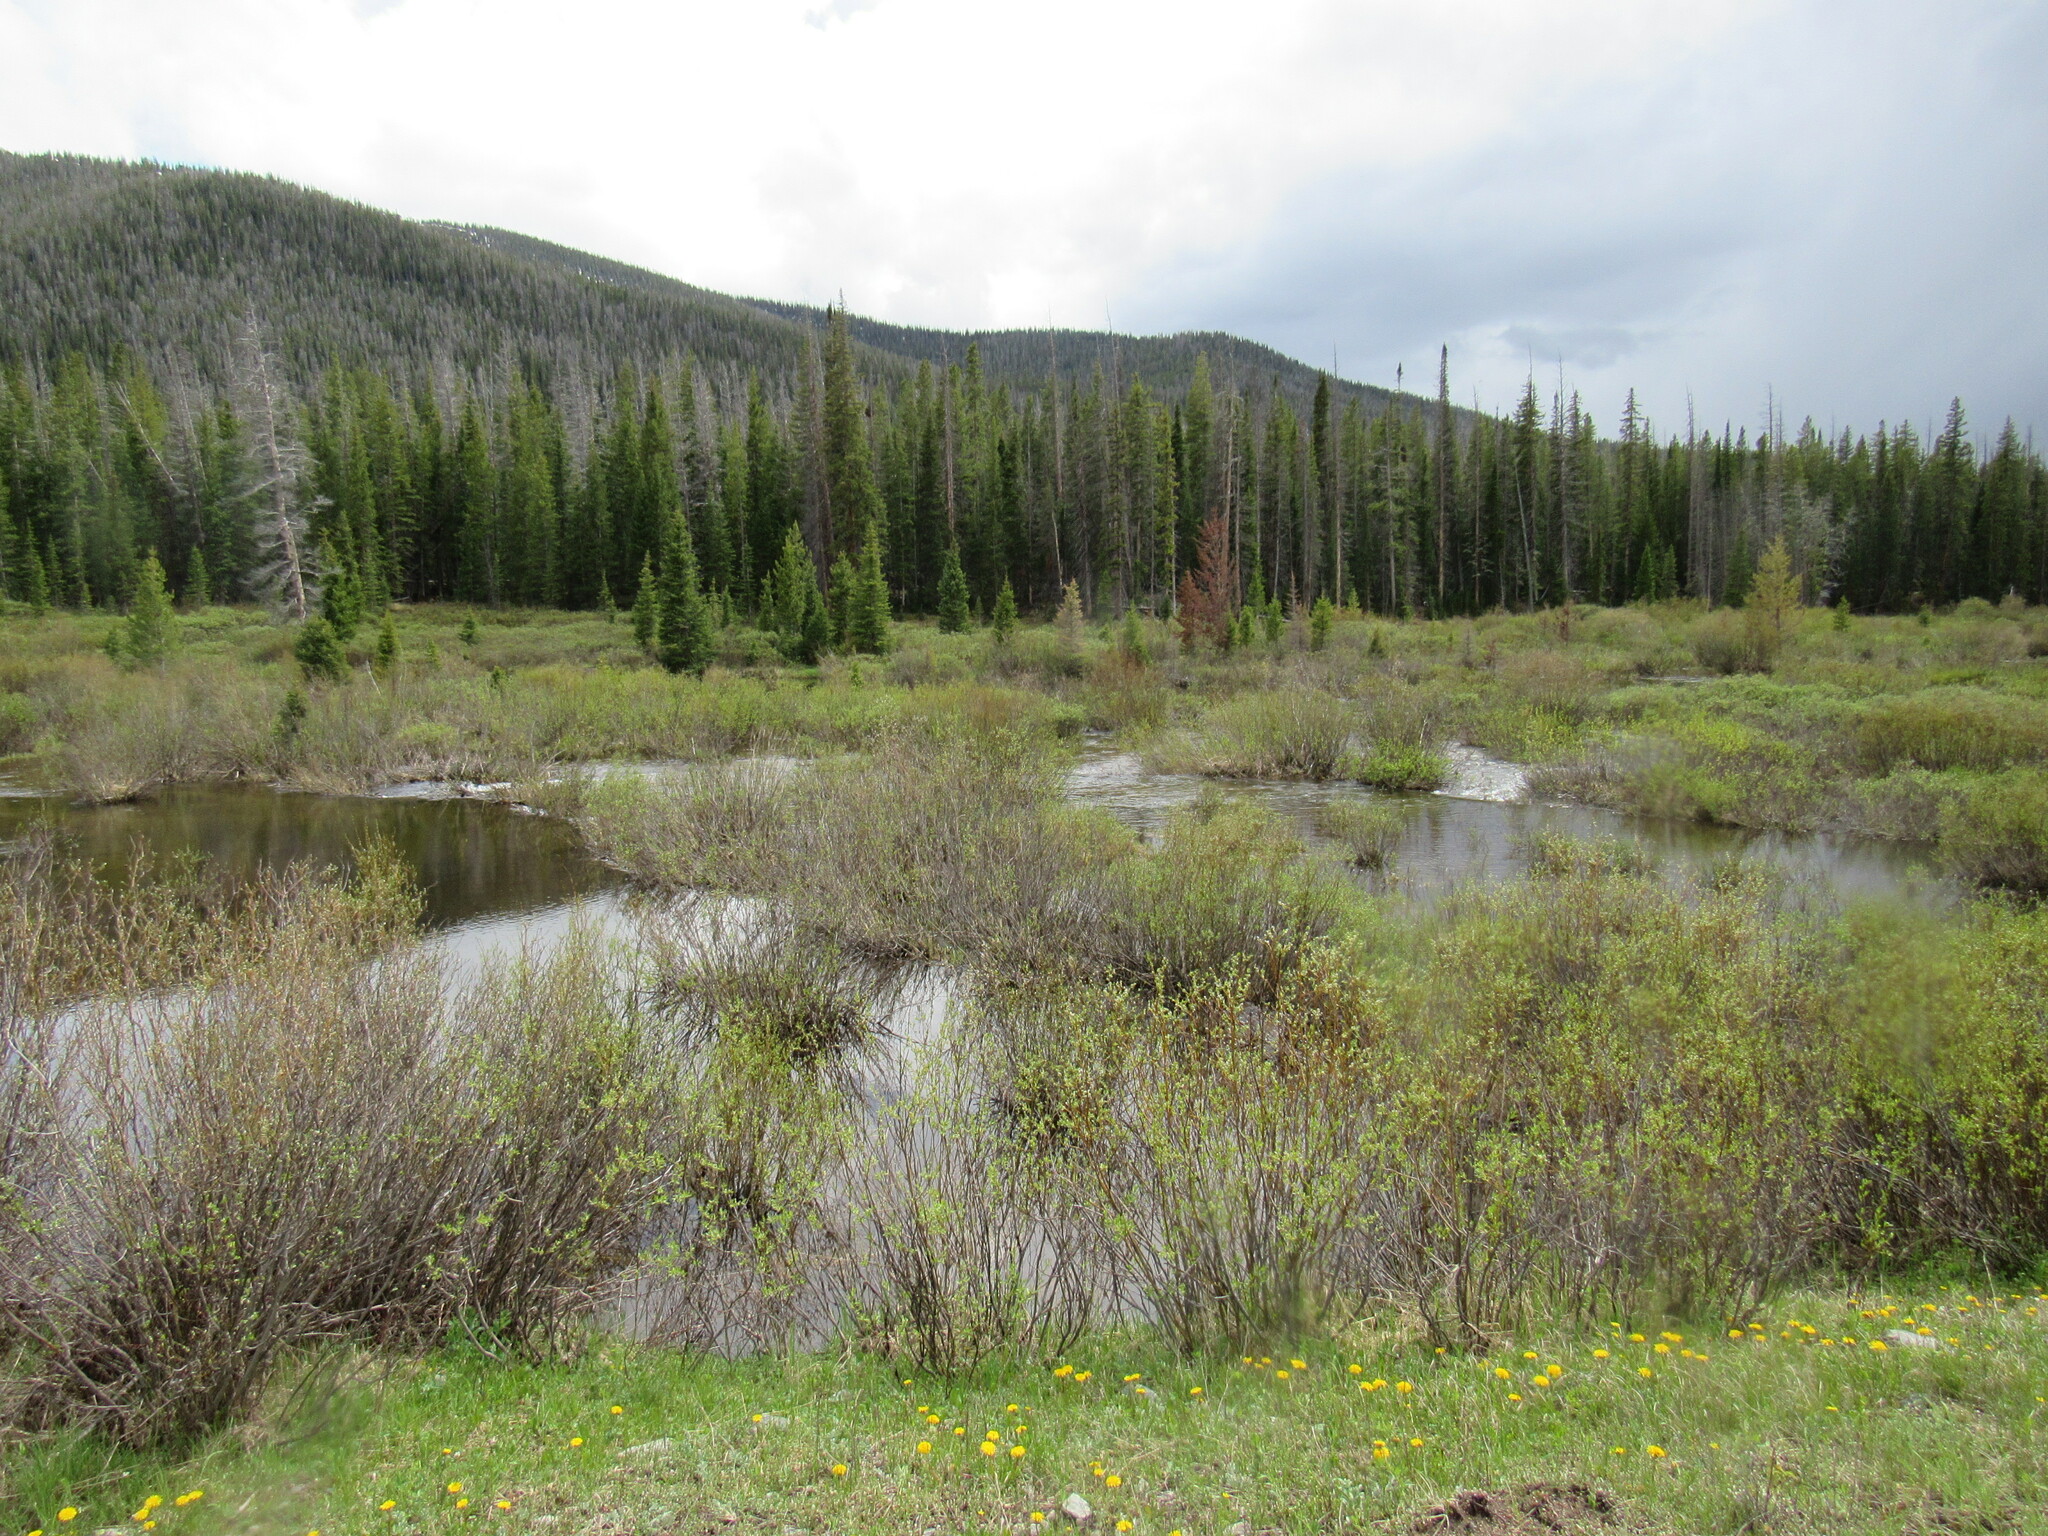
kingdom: Animalia
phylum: Chordata
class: Mammalia
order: Rodentia
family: Castoridae
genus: Castor
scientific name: Castor canadensis
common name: American beaver
